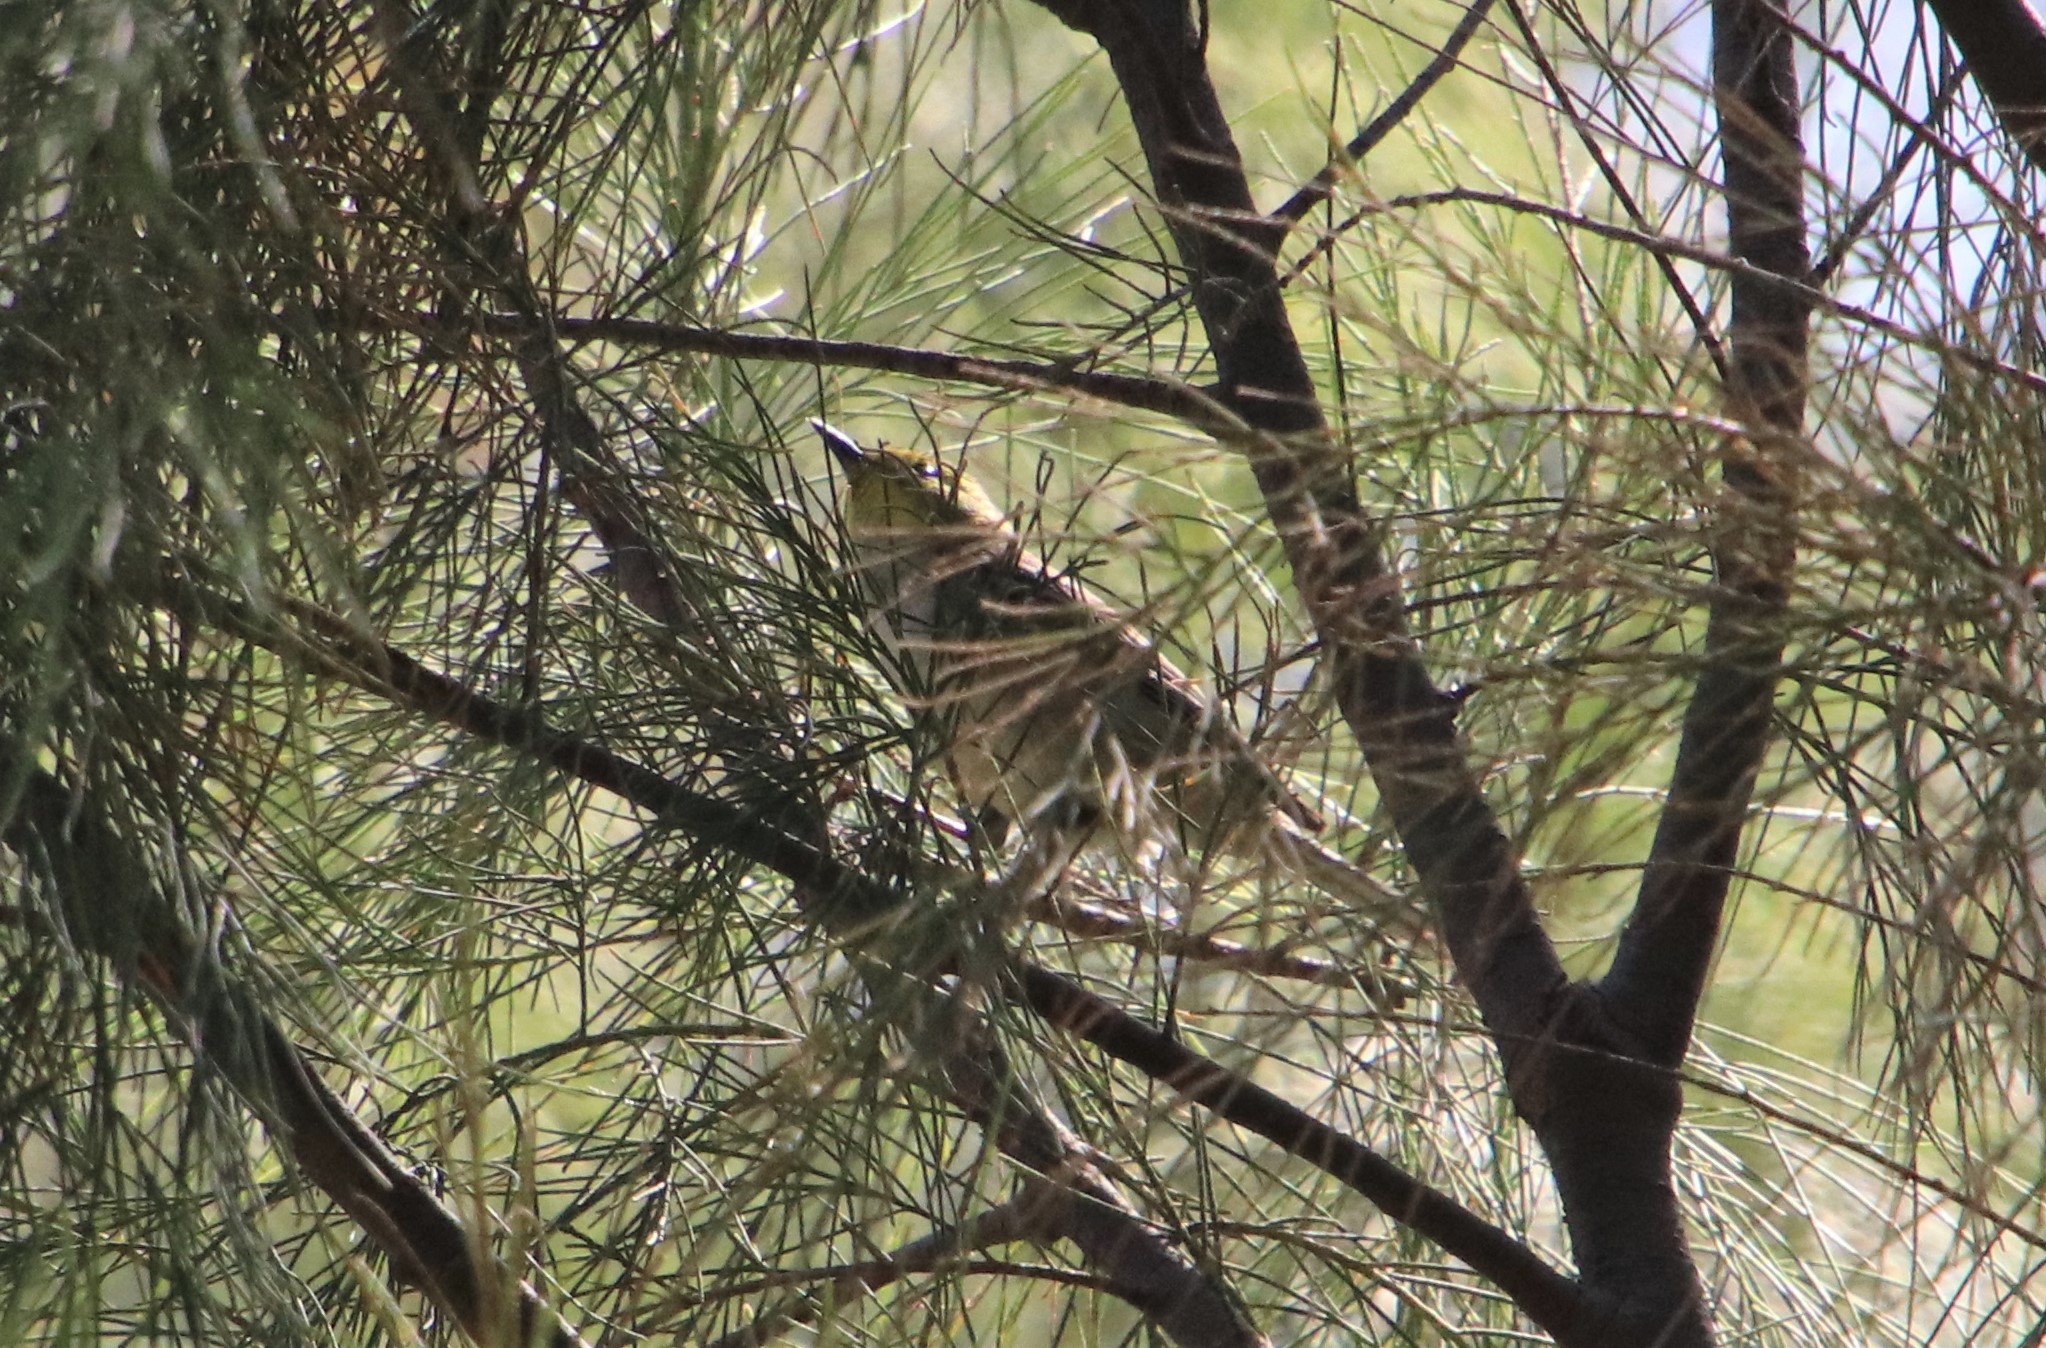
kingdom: Animalia
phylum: Chordata
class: Aves
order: Passeriformes
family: Parulidae
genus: Setophaga
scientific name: Setophaga occidentalis
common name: Hermit warbler
